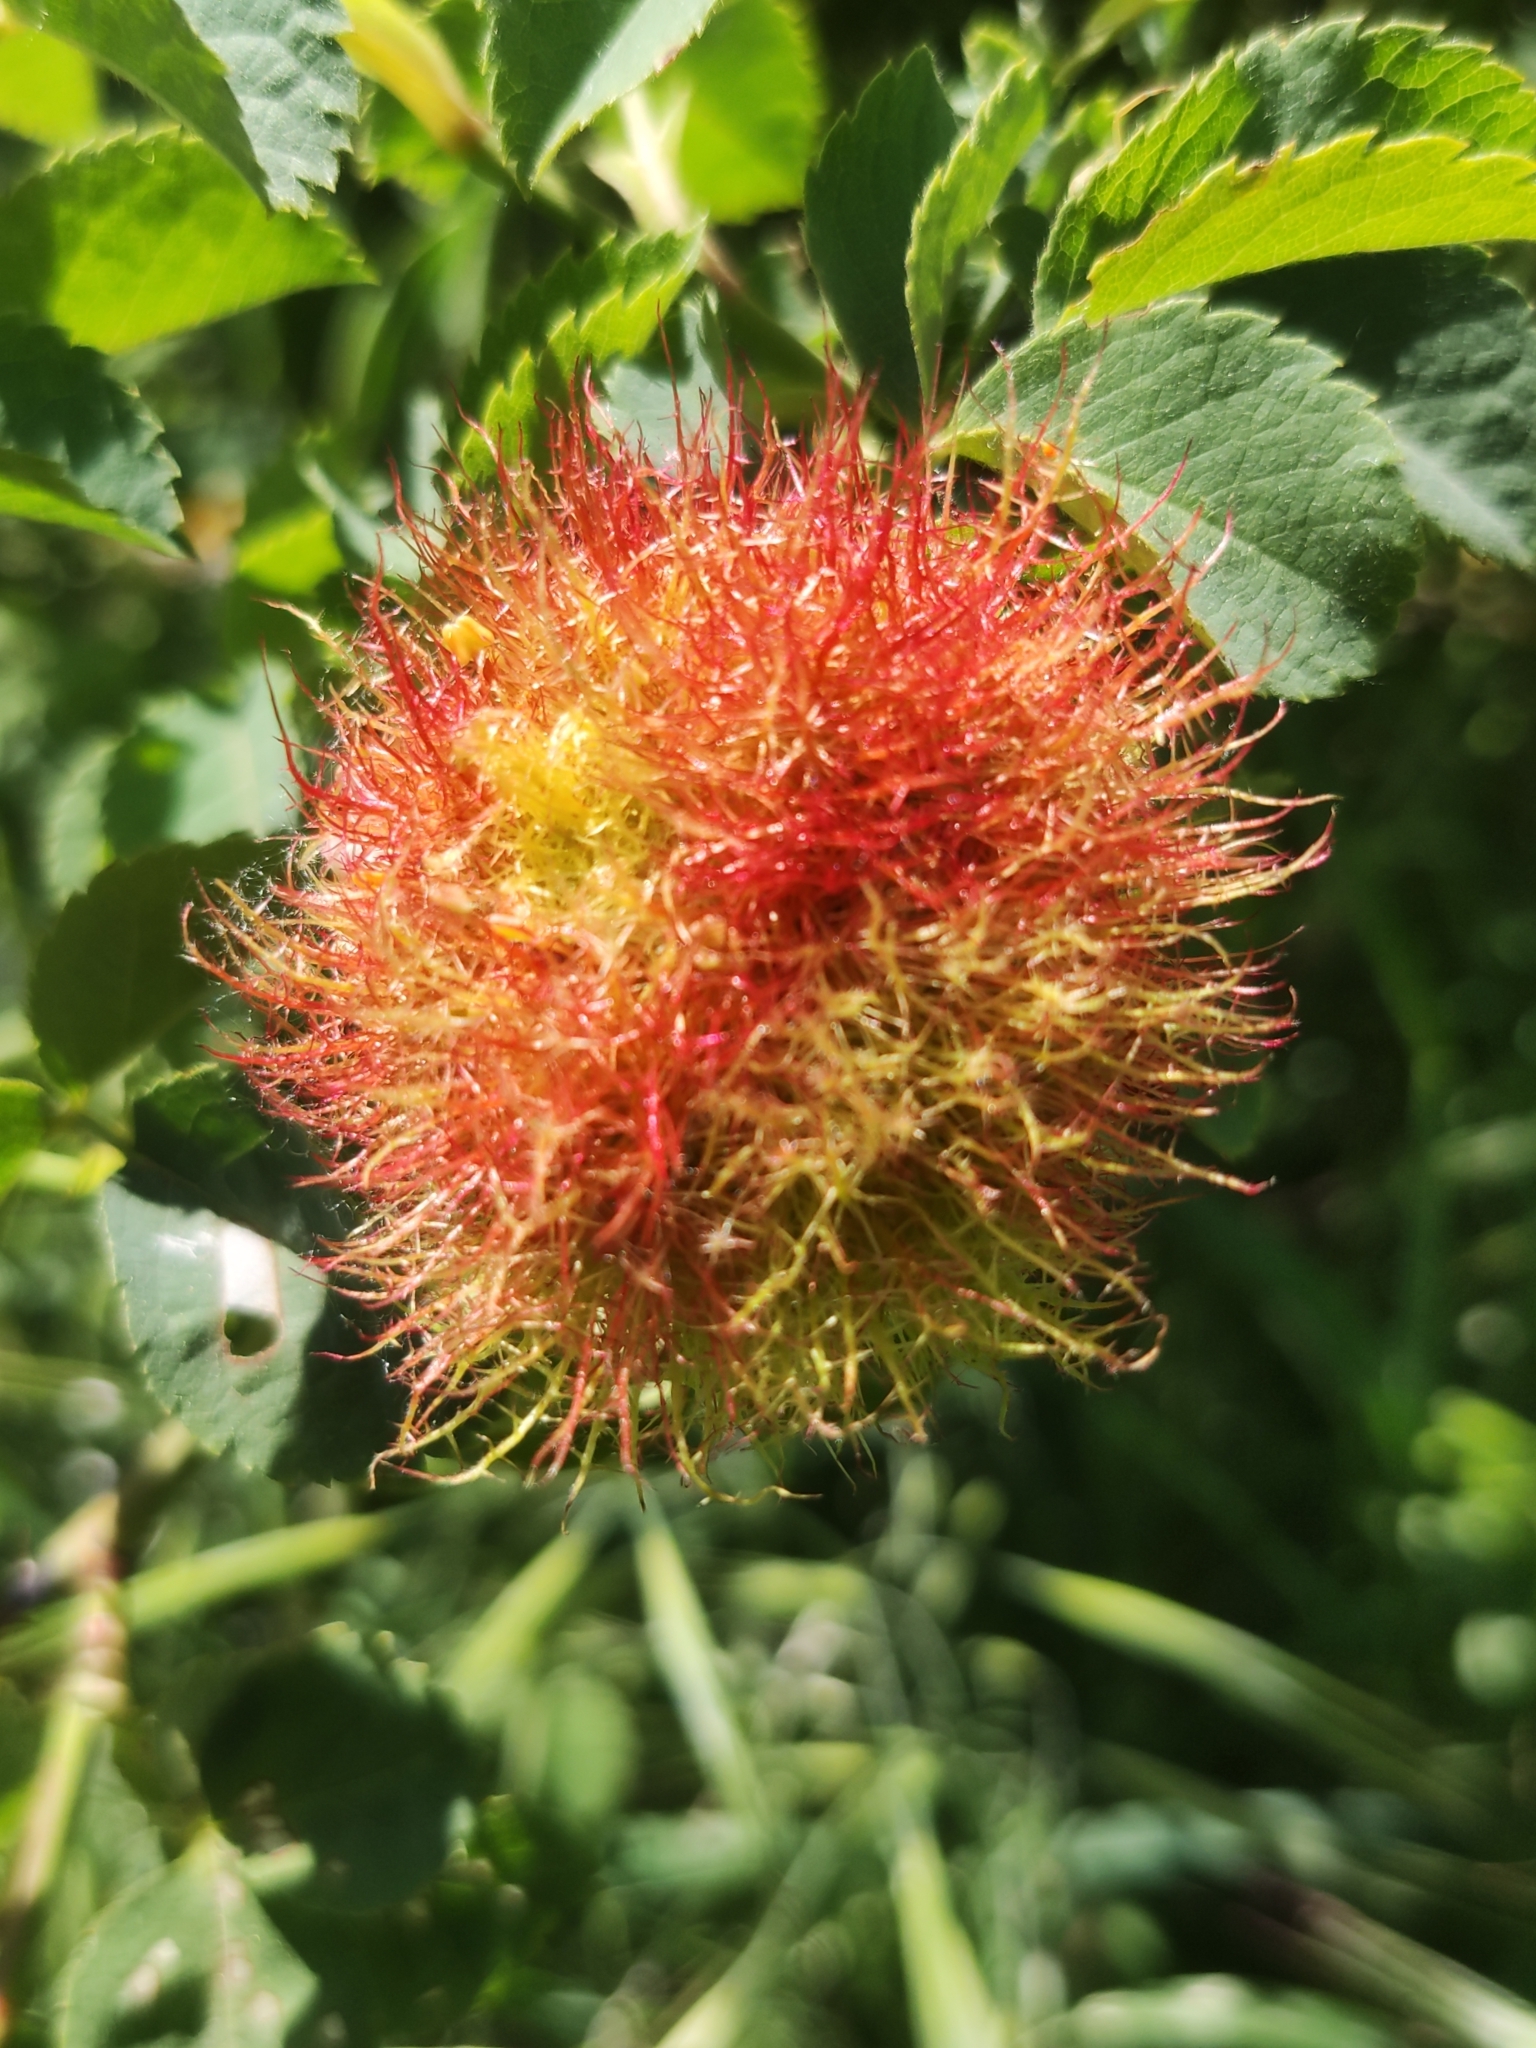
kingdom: Animalia
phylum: Arthropoda
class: Insecta
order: Hymenoptera
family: Cynipidae
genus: Diplolepis
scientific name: Diplolepis rosae
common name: Bedeguar gall
